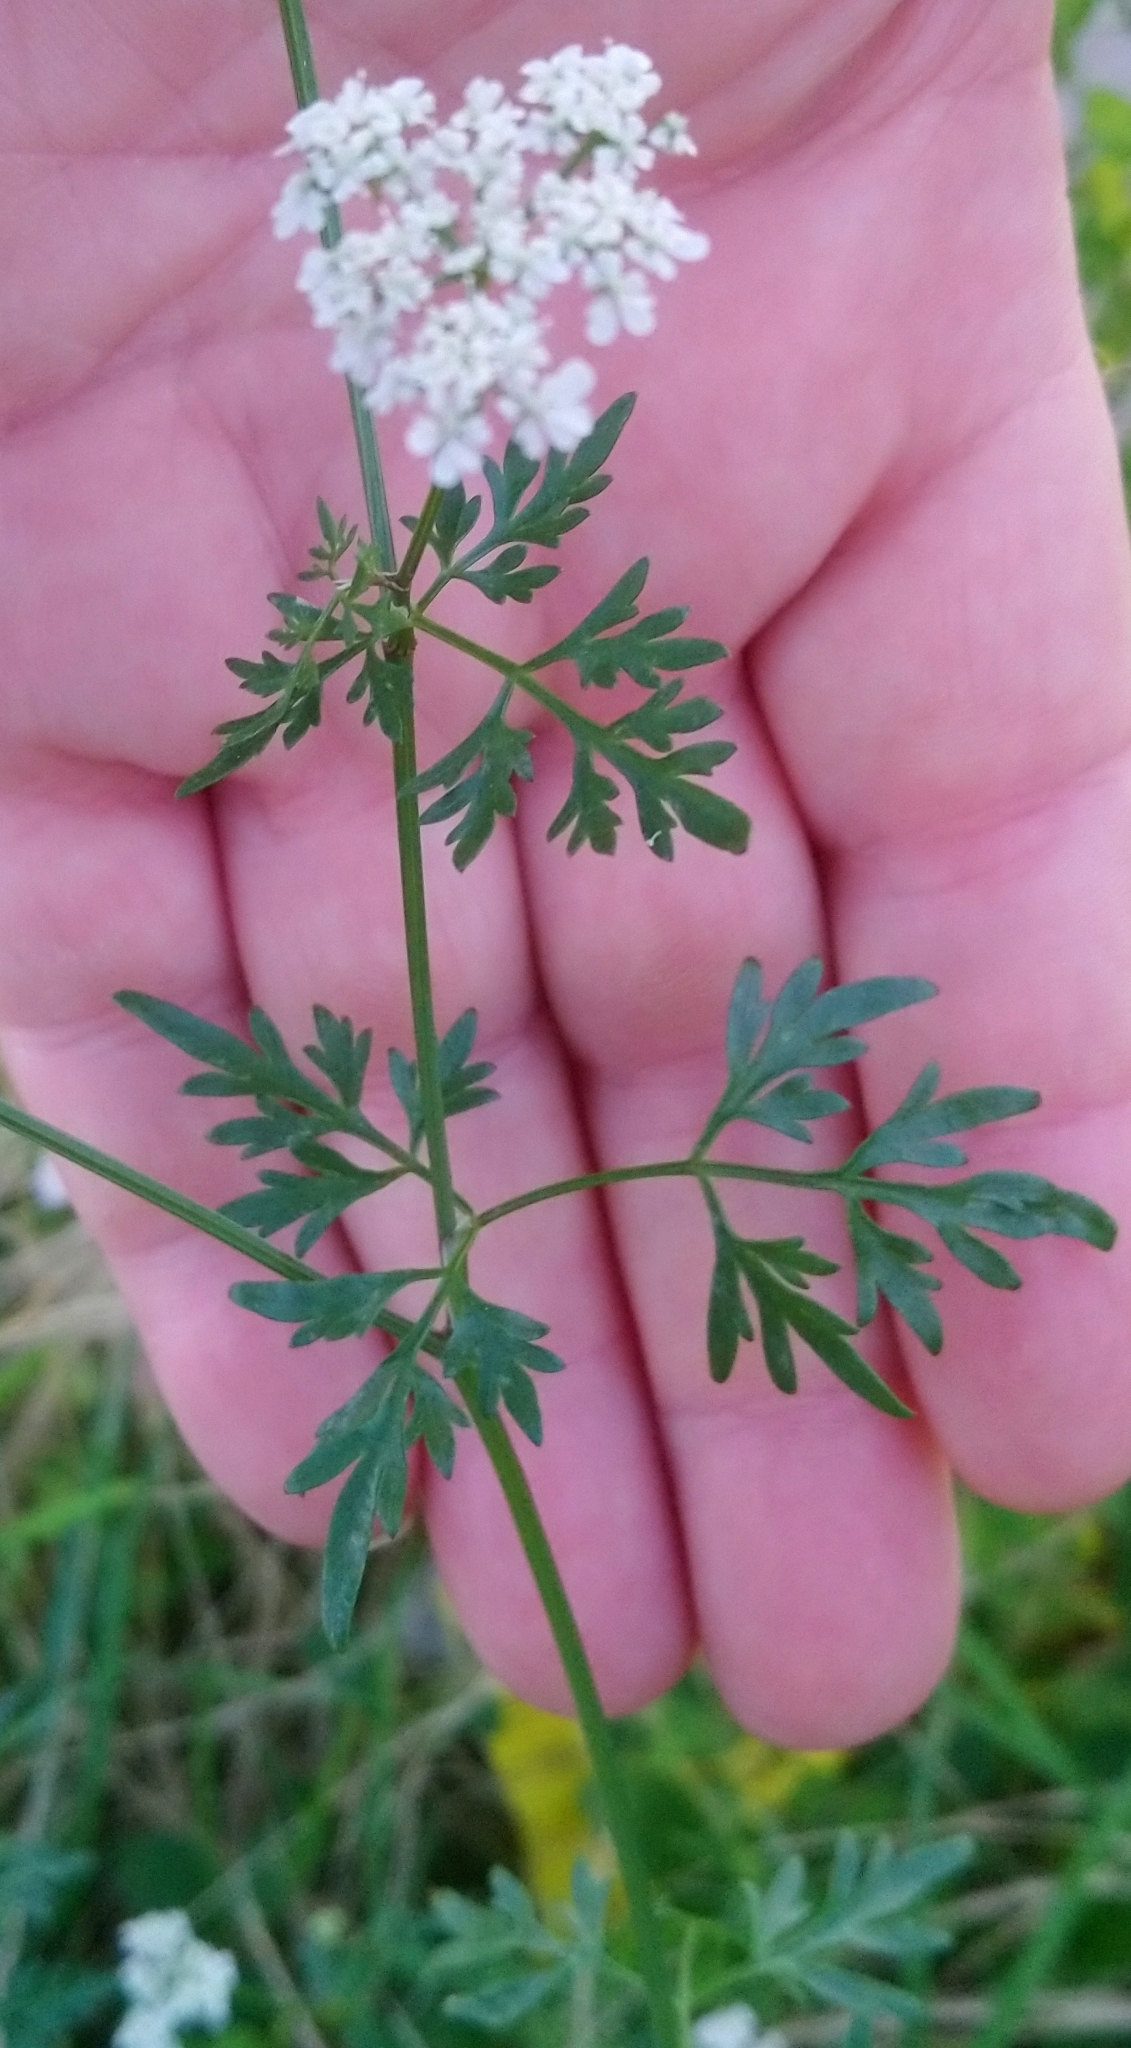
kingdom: Plantae
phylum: Tracheophyta
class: Magnoliopsida
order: Apiales
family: Apiaceae
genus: Aethusa
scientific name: Aethusa cynapium
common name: Fool's parsley
